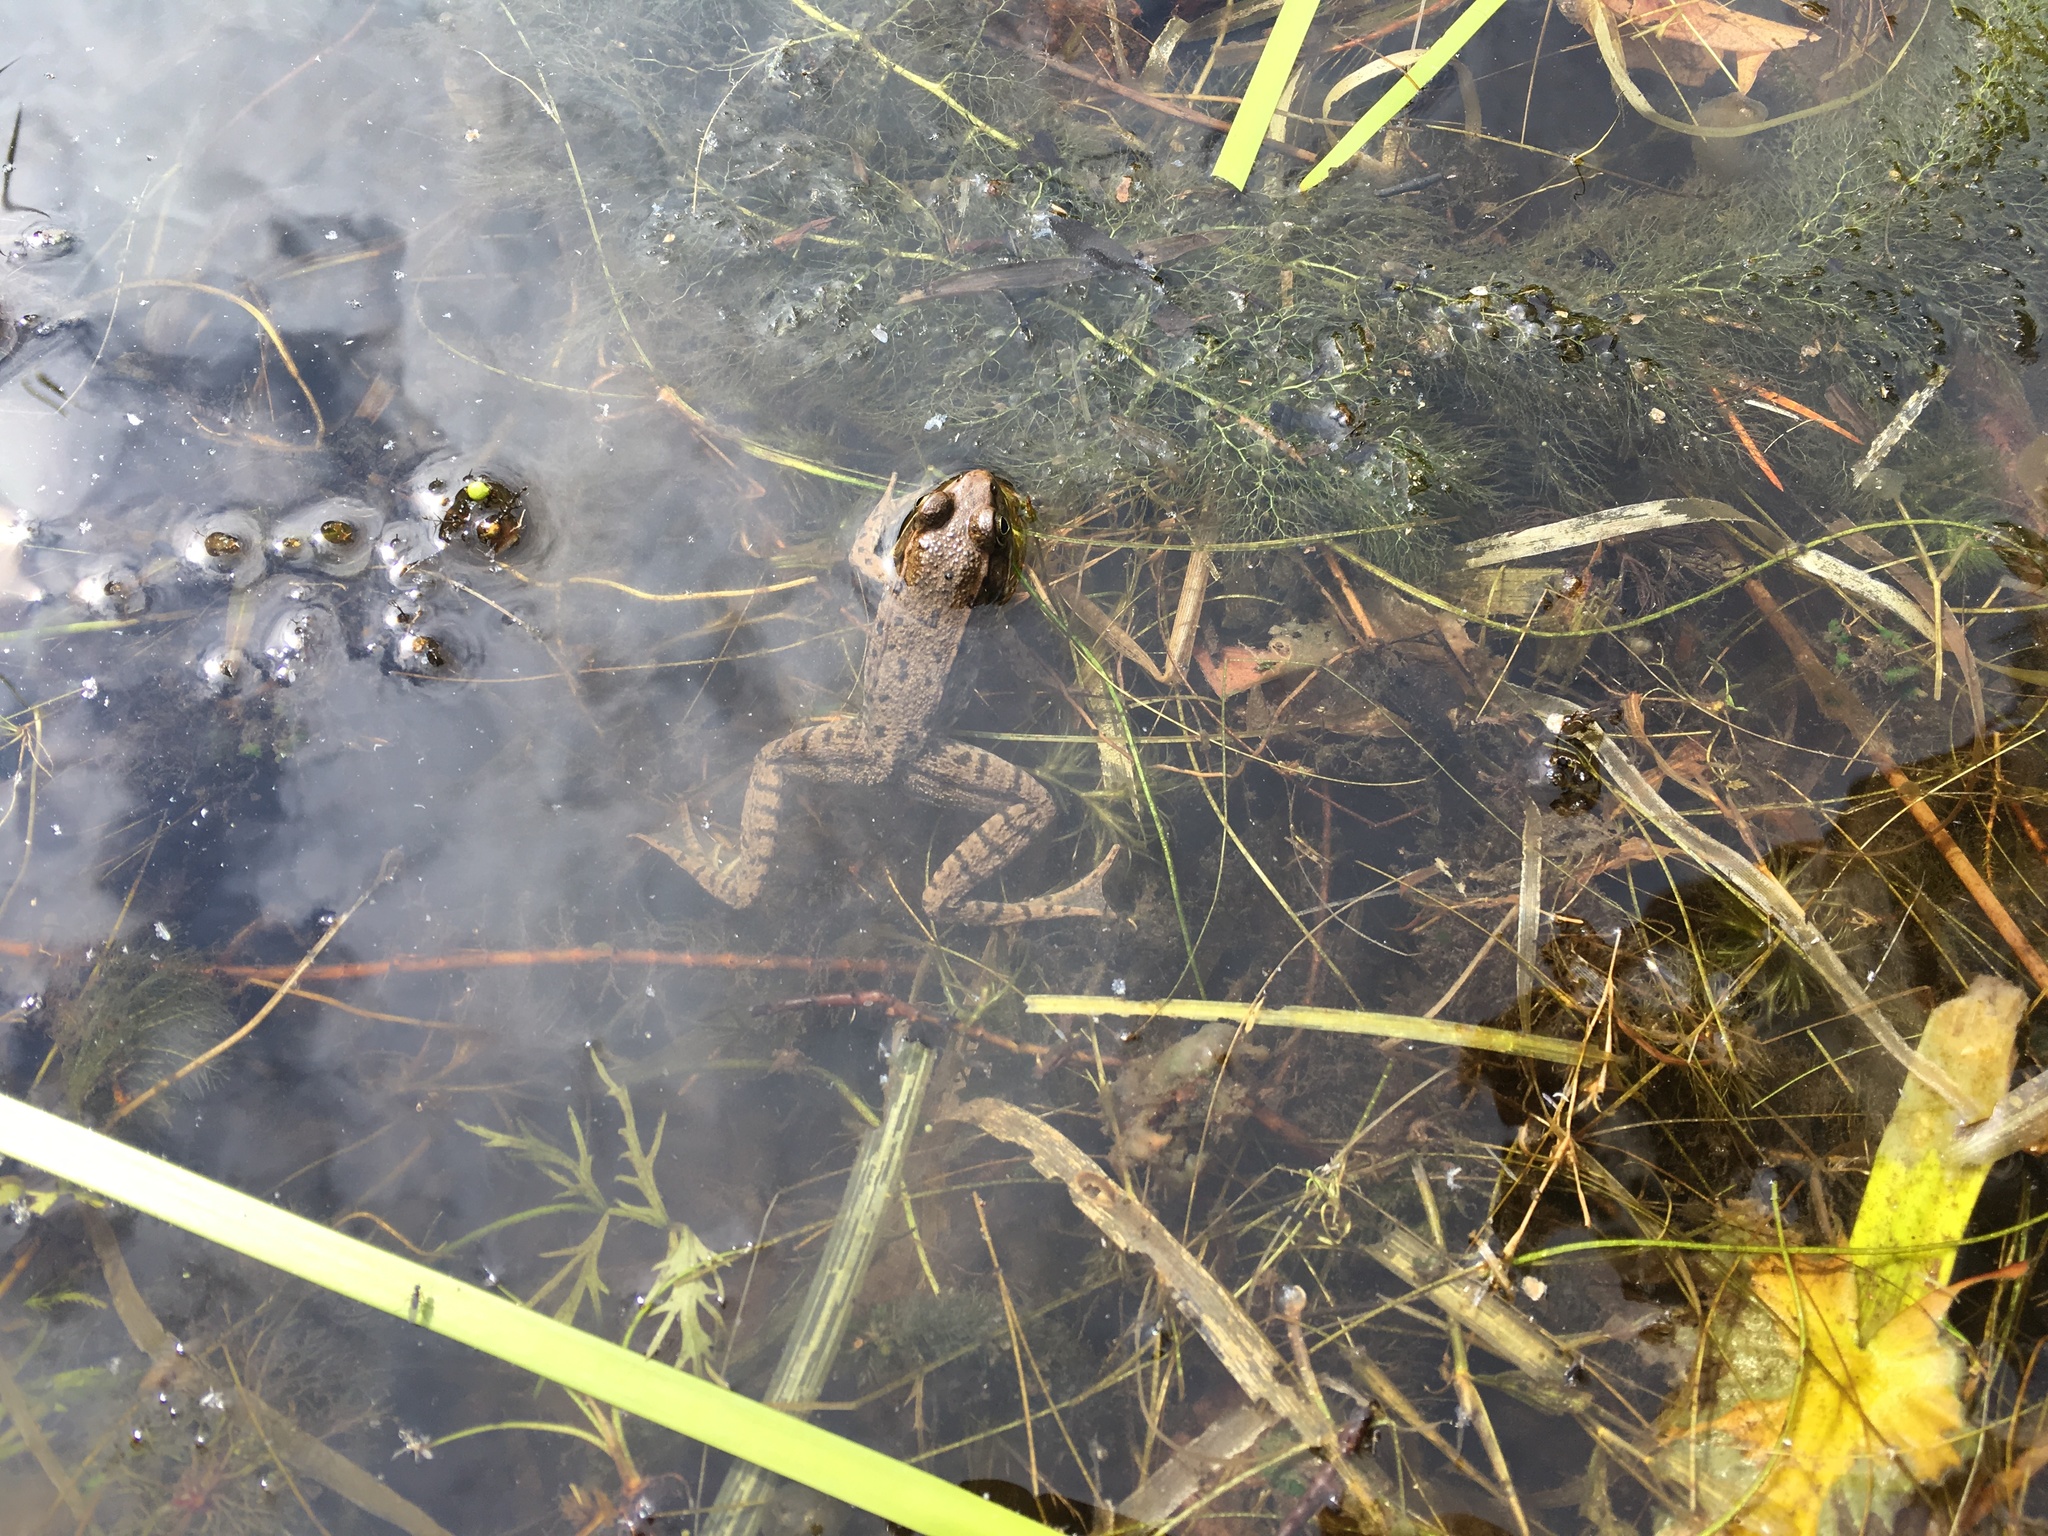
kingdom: Animalia
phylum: Chordata
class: Amphibia
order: Anura
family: Ranidae
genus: Lithobates
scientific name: Lithobates clamitans
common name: Green frog
